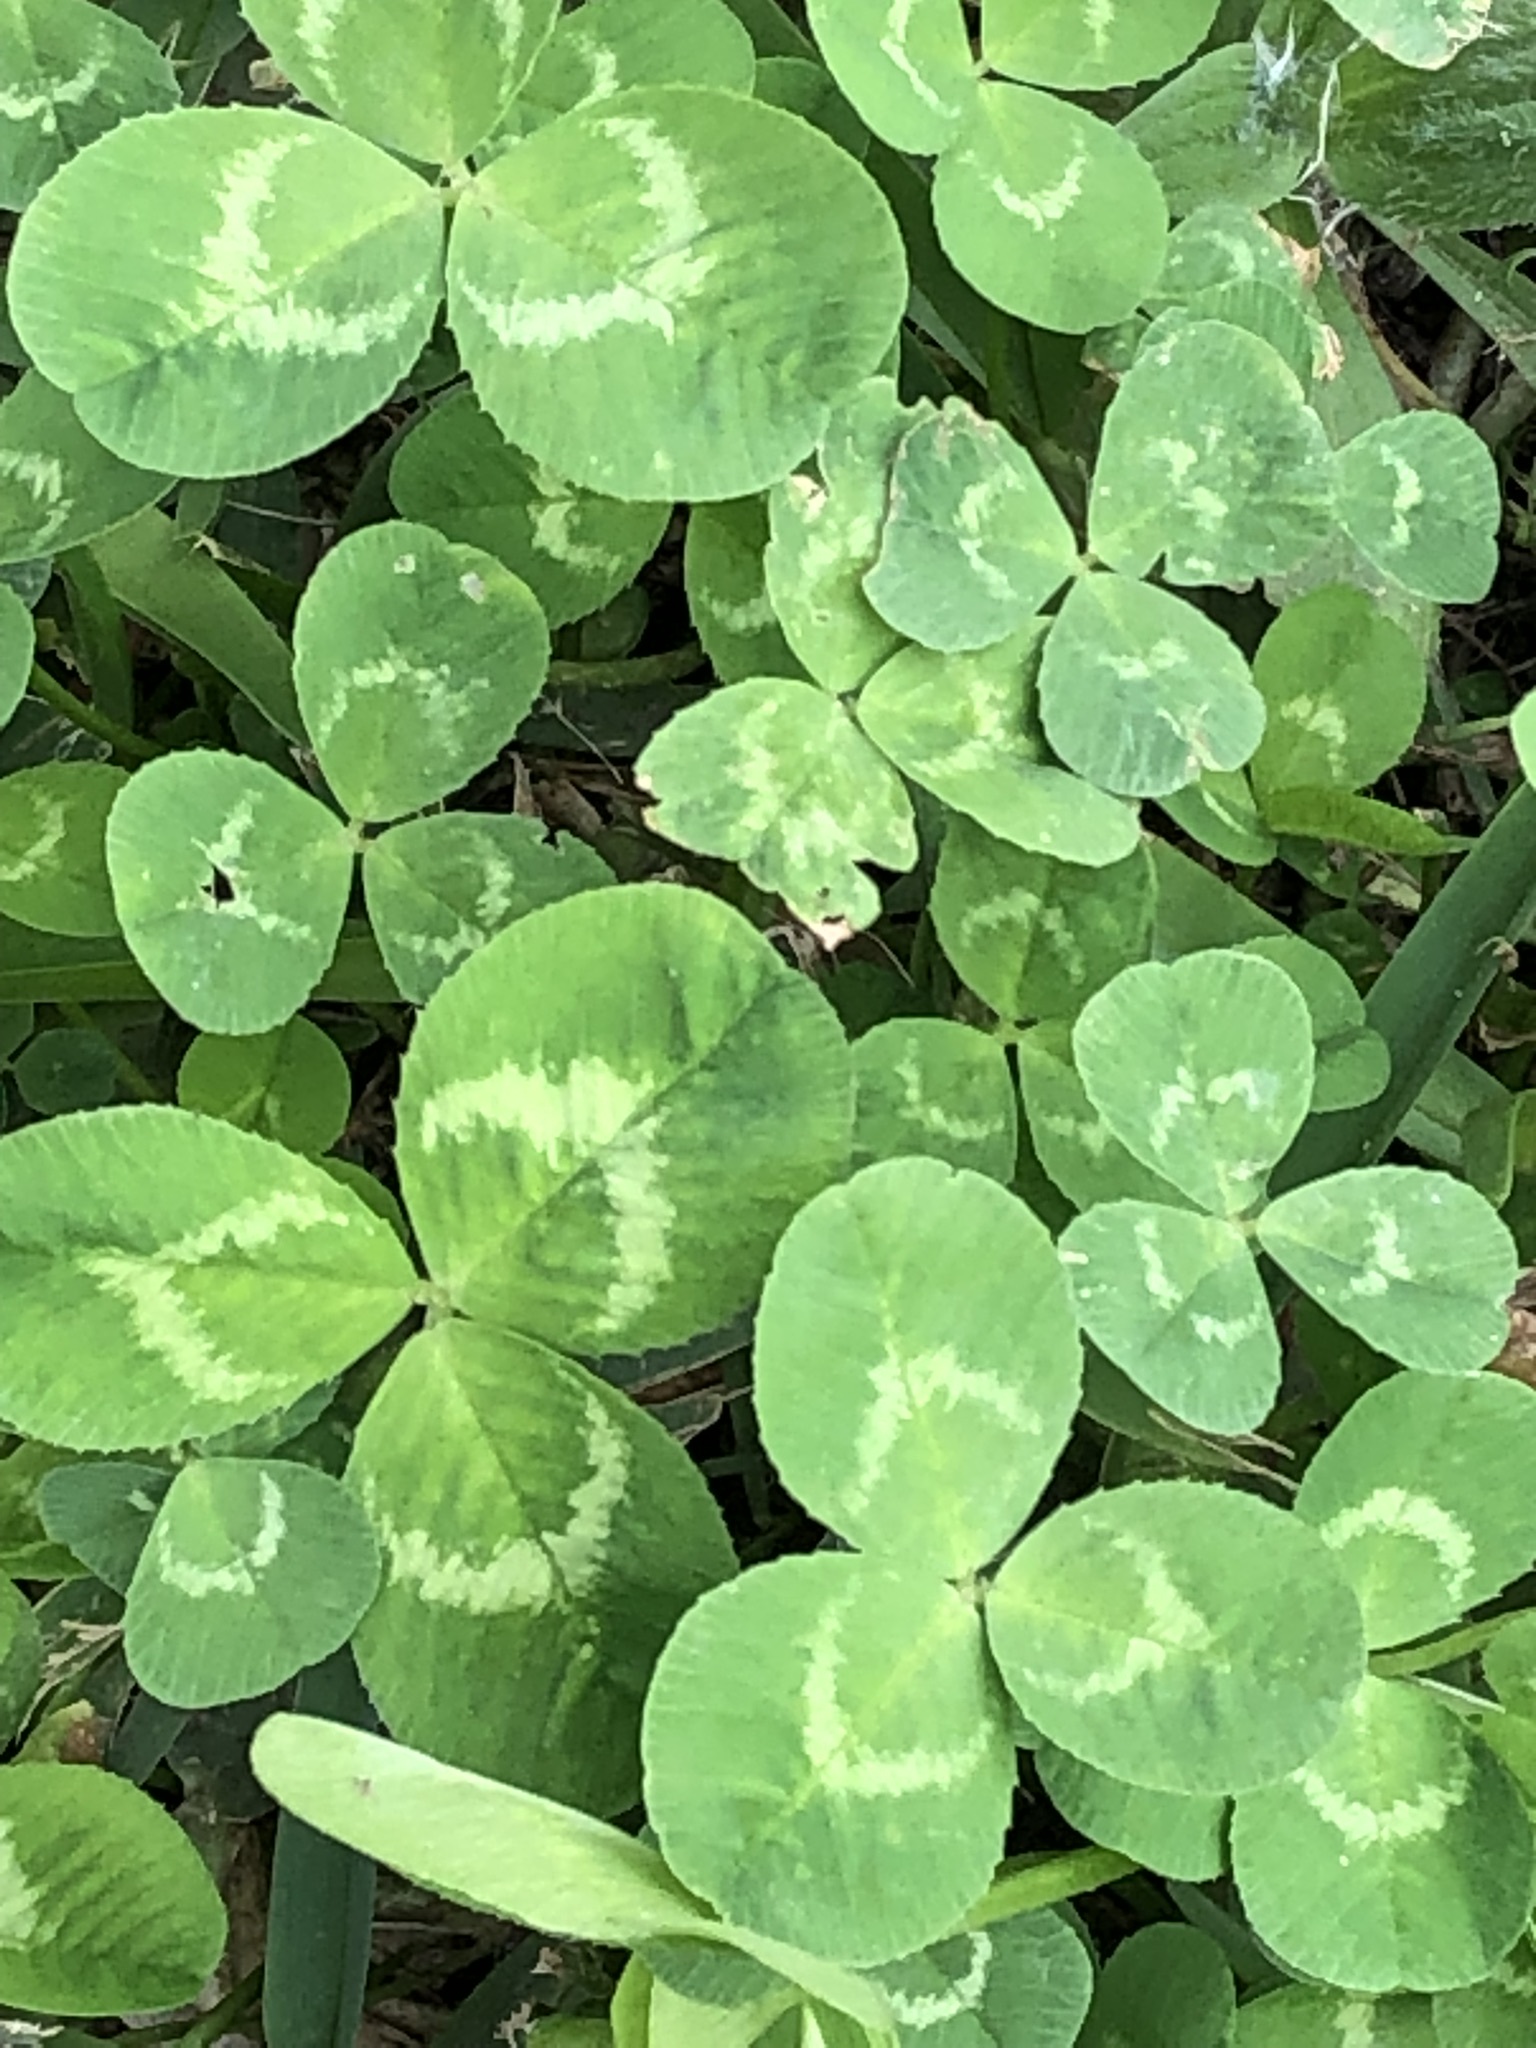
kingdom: Plantae
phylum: Tracheophyta
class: Magnoliopsida
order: Fabales
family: Fabaceae
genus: Trifolium
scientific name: Trifolium repens
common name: White clover
